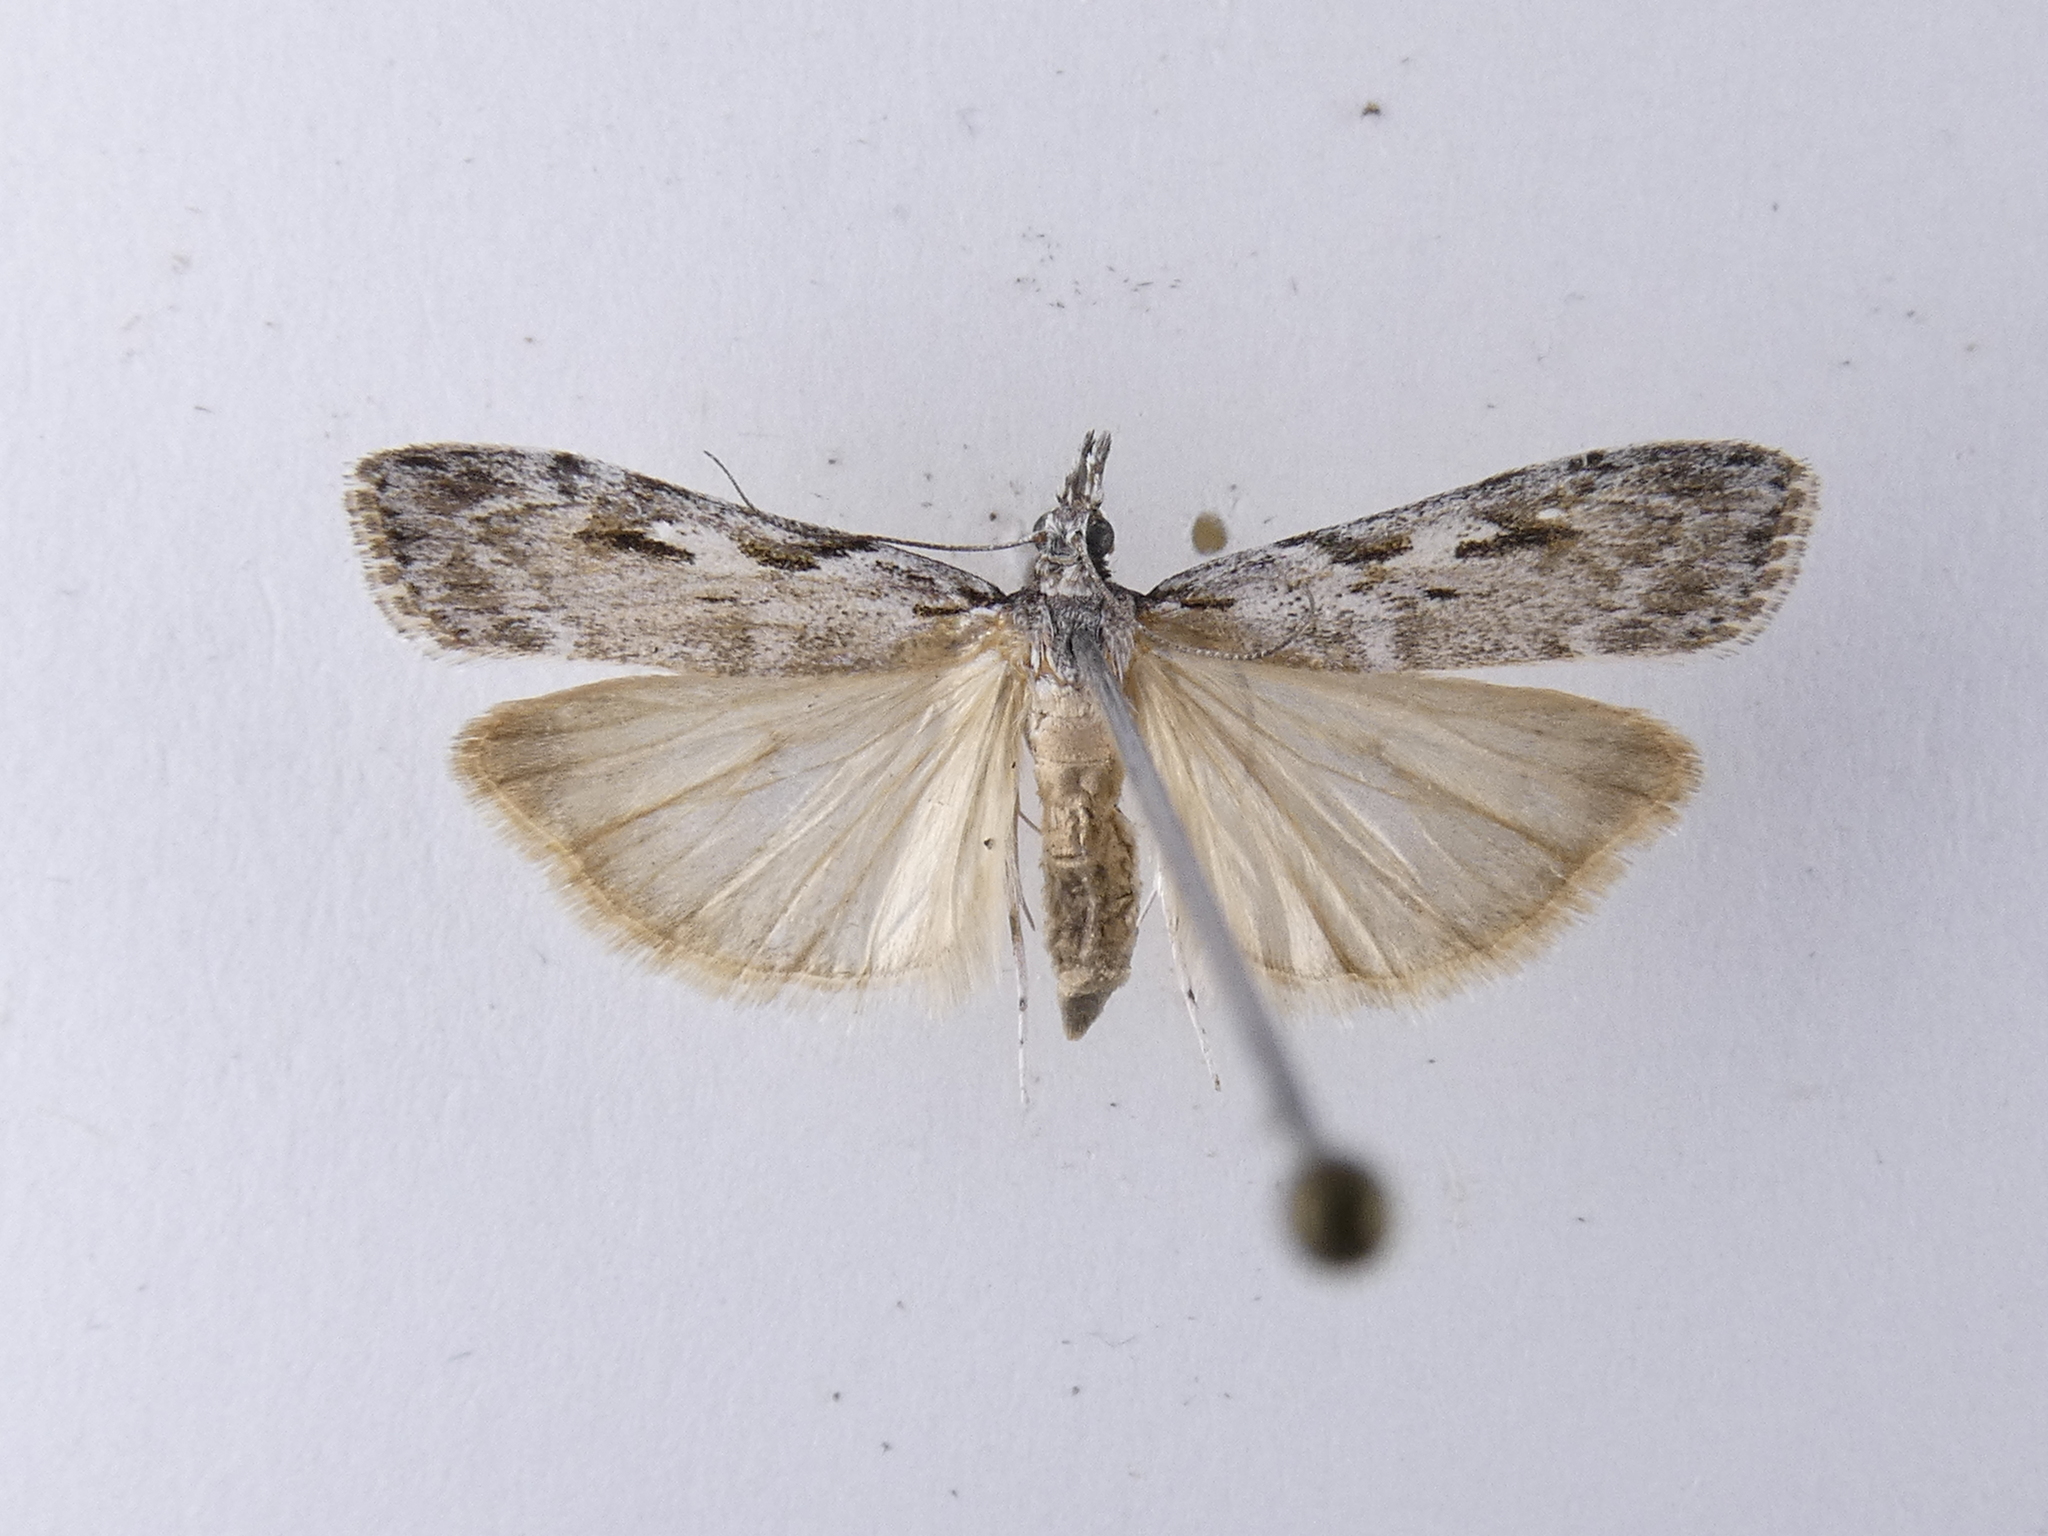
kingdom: Animalia
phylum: Arthropoda
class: Insecta
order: Lepidoptera
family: Crambidae
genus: Scoparia
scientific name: Scoparia halopis
